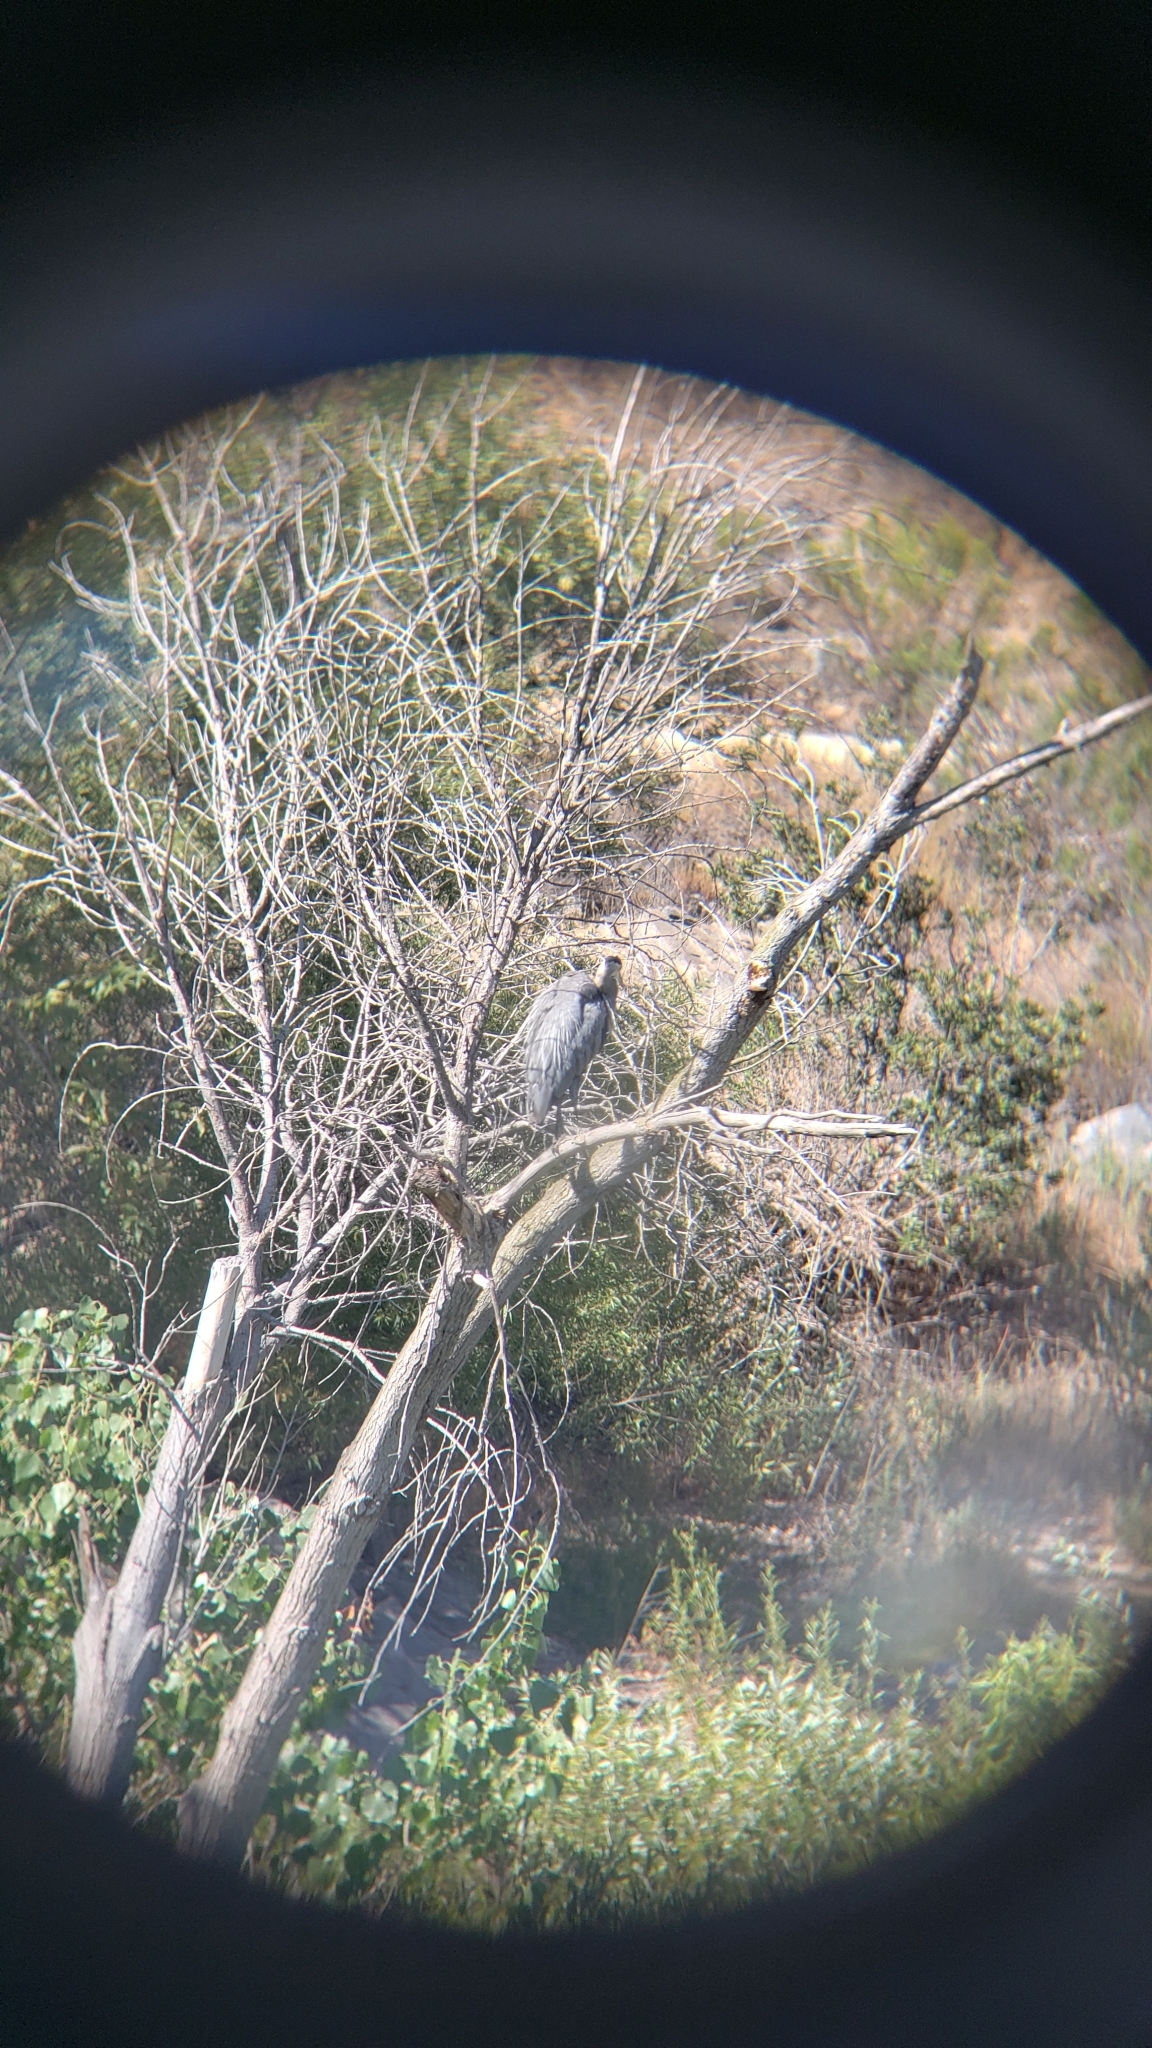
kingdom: Animalia
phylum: Chordata
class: Aves
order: Pelecaniformes
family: Ardeidae
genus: Ardea
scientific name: Ardea herodias
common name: Great blue heron
